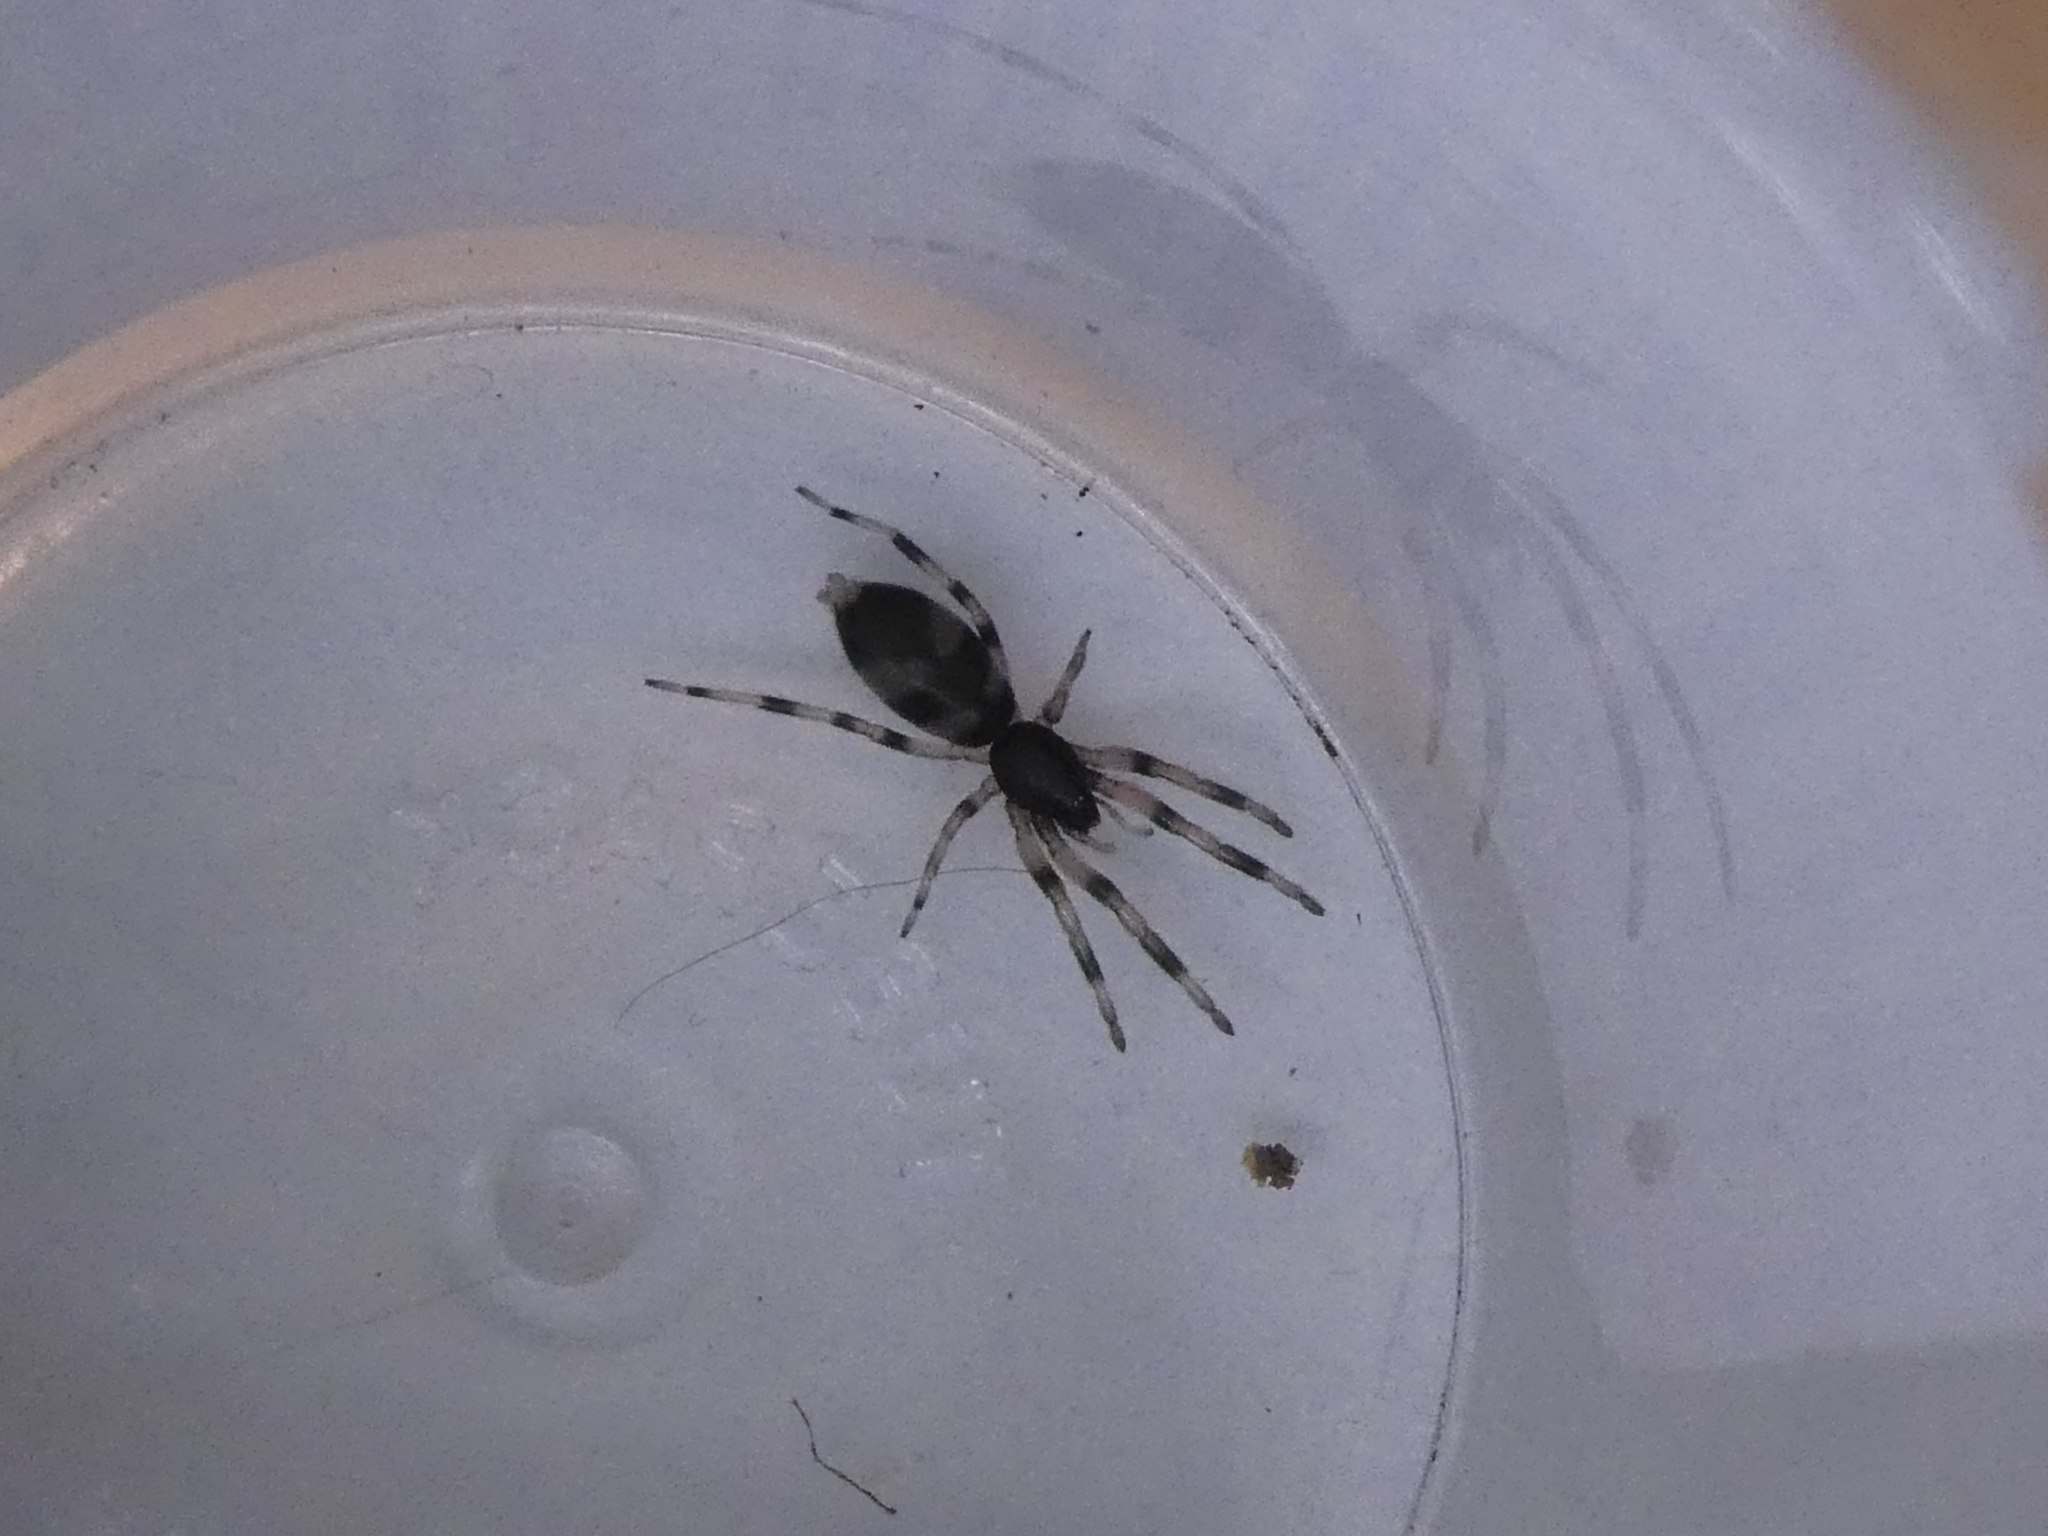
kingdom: Animalia
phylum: Arthropoda
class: Arachnida
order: Araneae
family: Lamponidae
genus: Lampona
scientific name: Lampona murina
